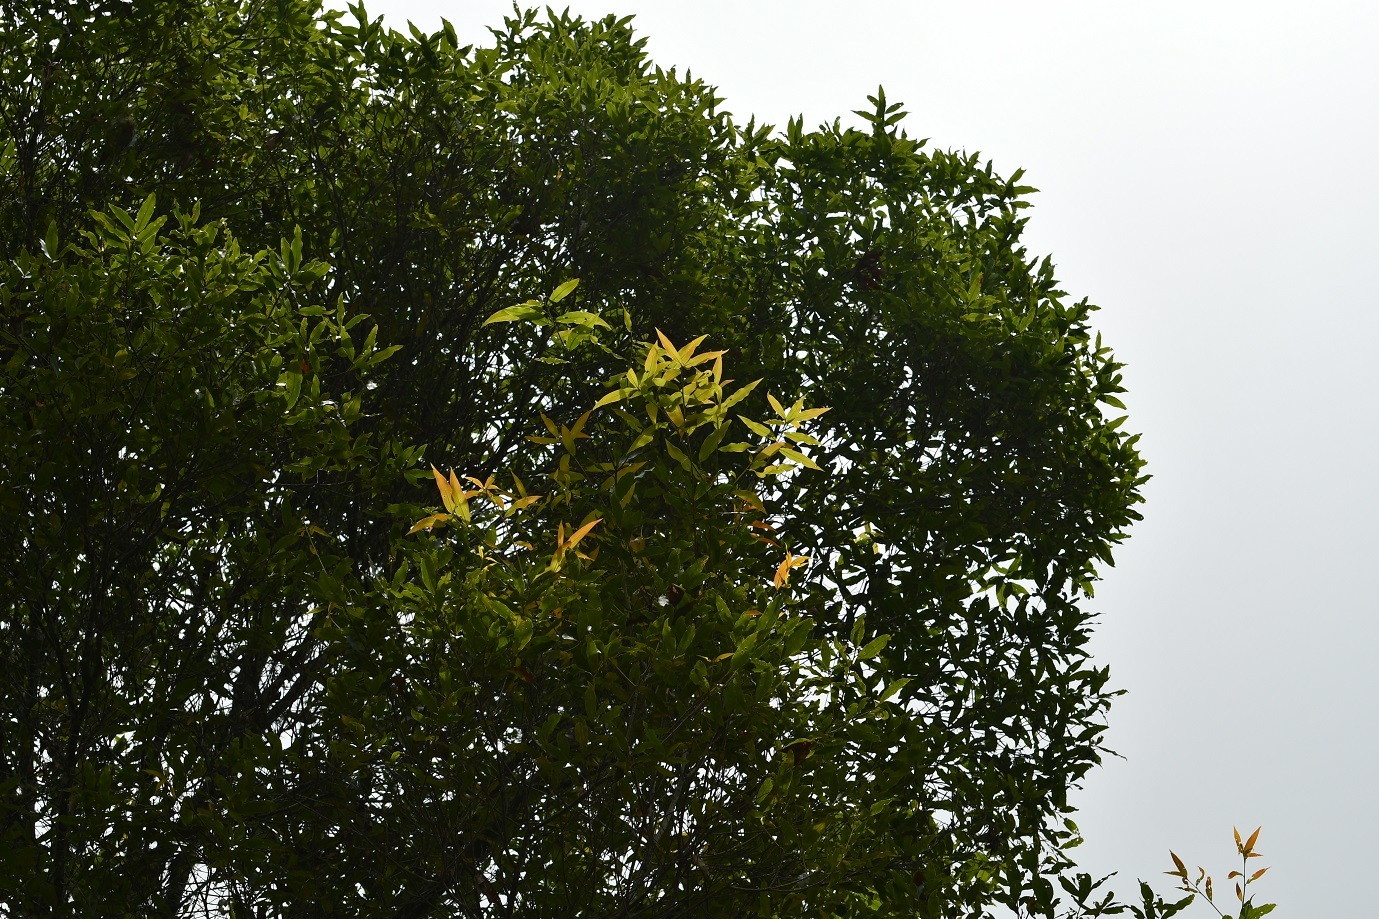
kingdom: Plantae
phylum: Tracheophyta
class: Magnoliopsida
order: Fagales
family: Fagaceae
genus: Quercus
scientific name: Quercus crispifolia
